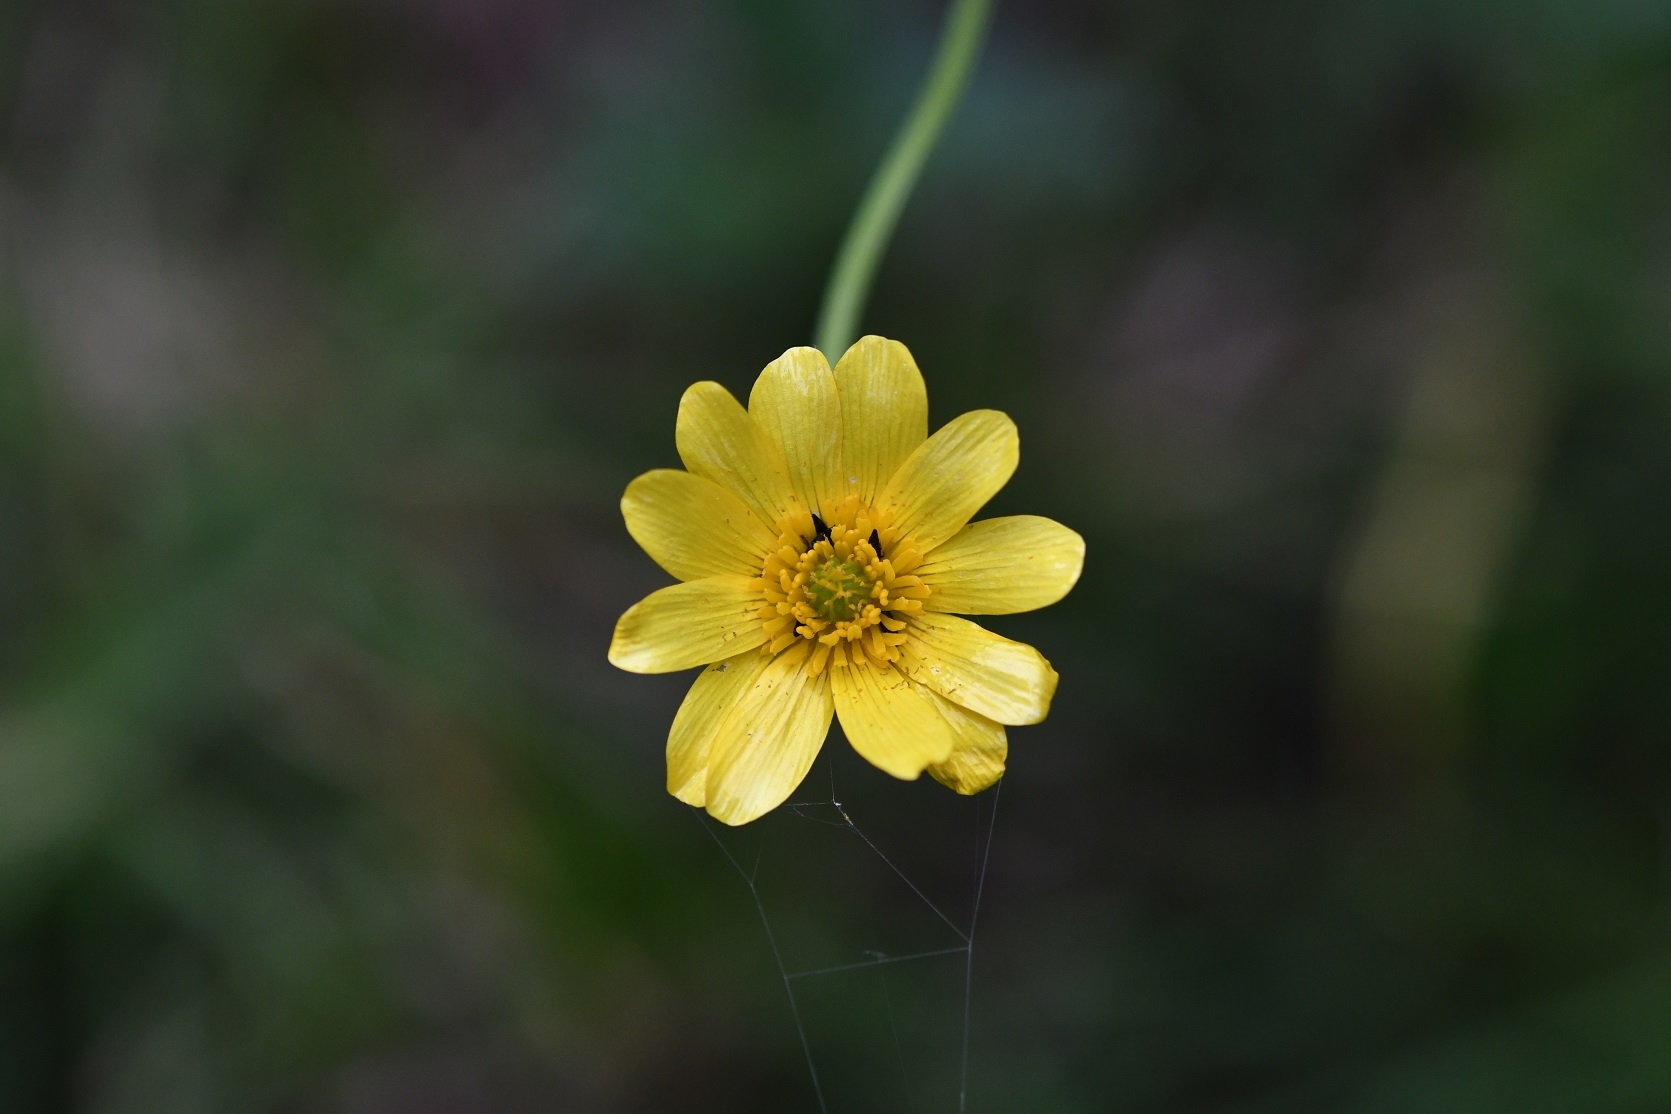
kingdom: Plantae
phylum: Tracheophyta
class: Magnoliopsida
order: Ranunculales
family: Ranunculaceae
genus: Ranunculus
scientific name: Ranunculus petiolaris
